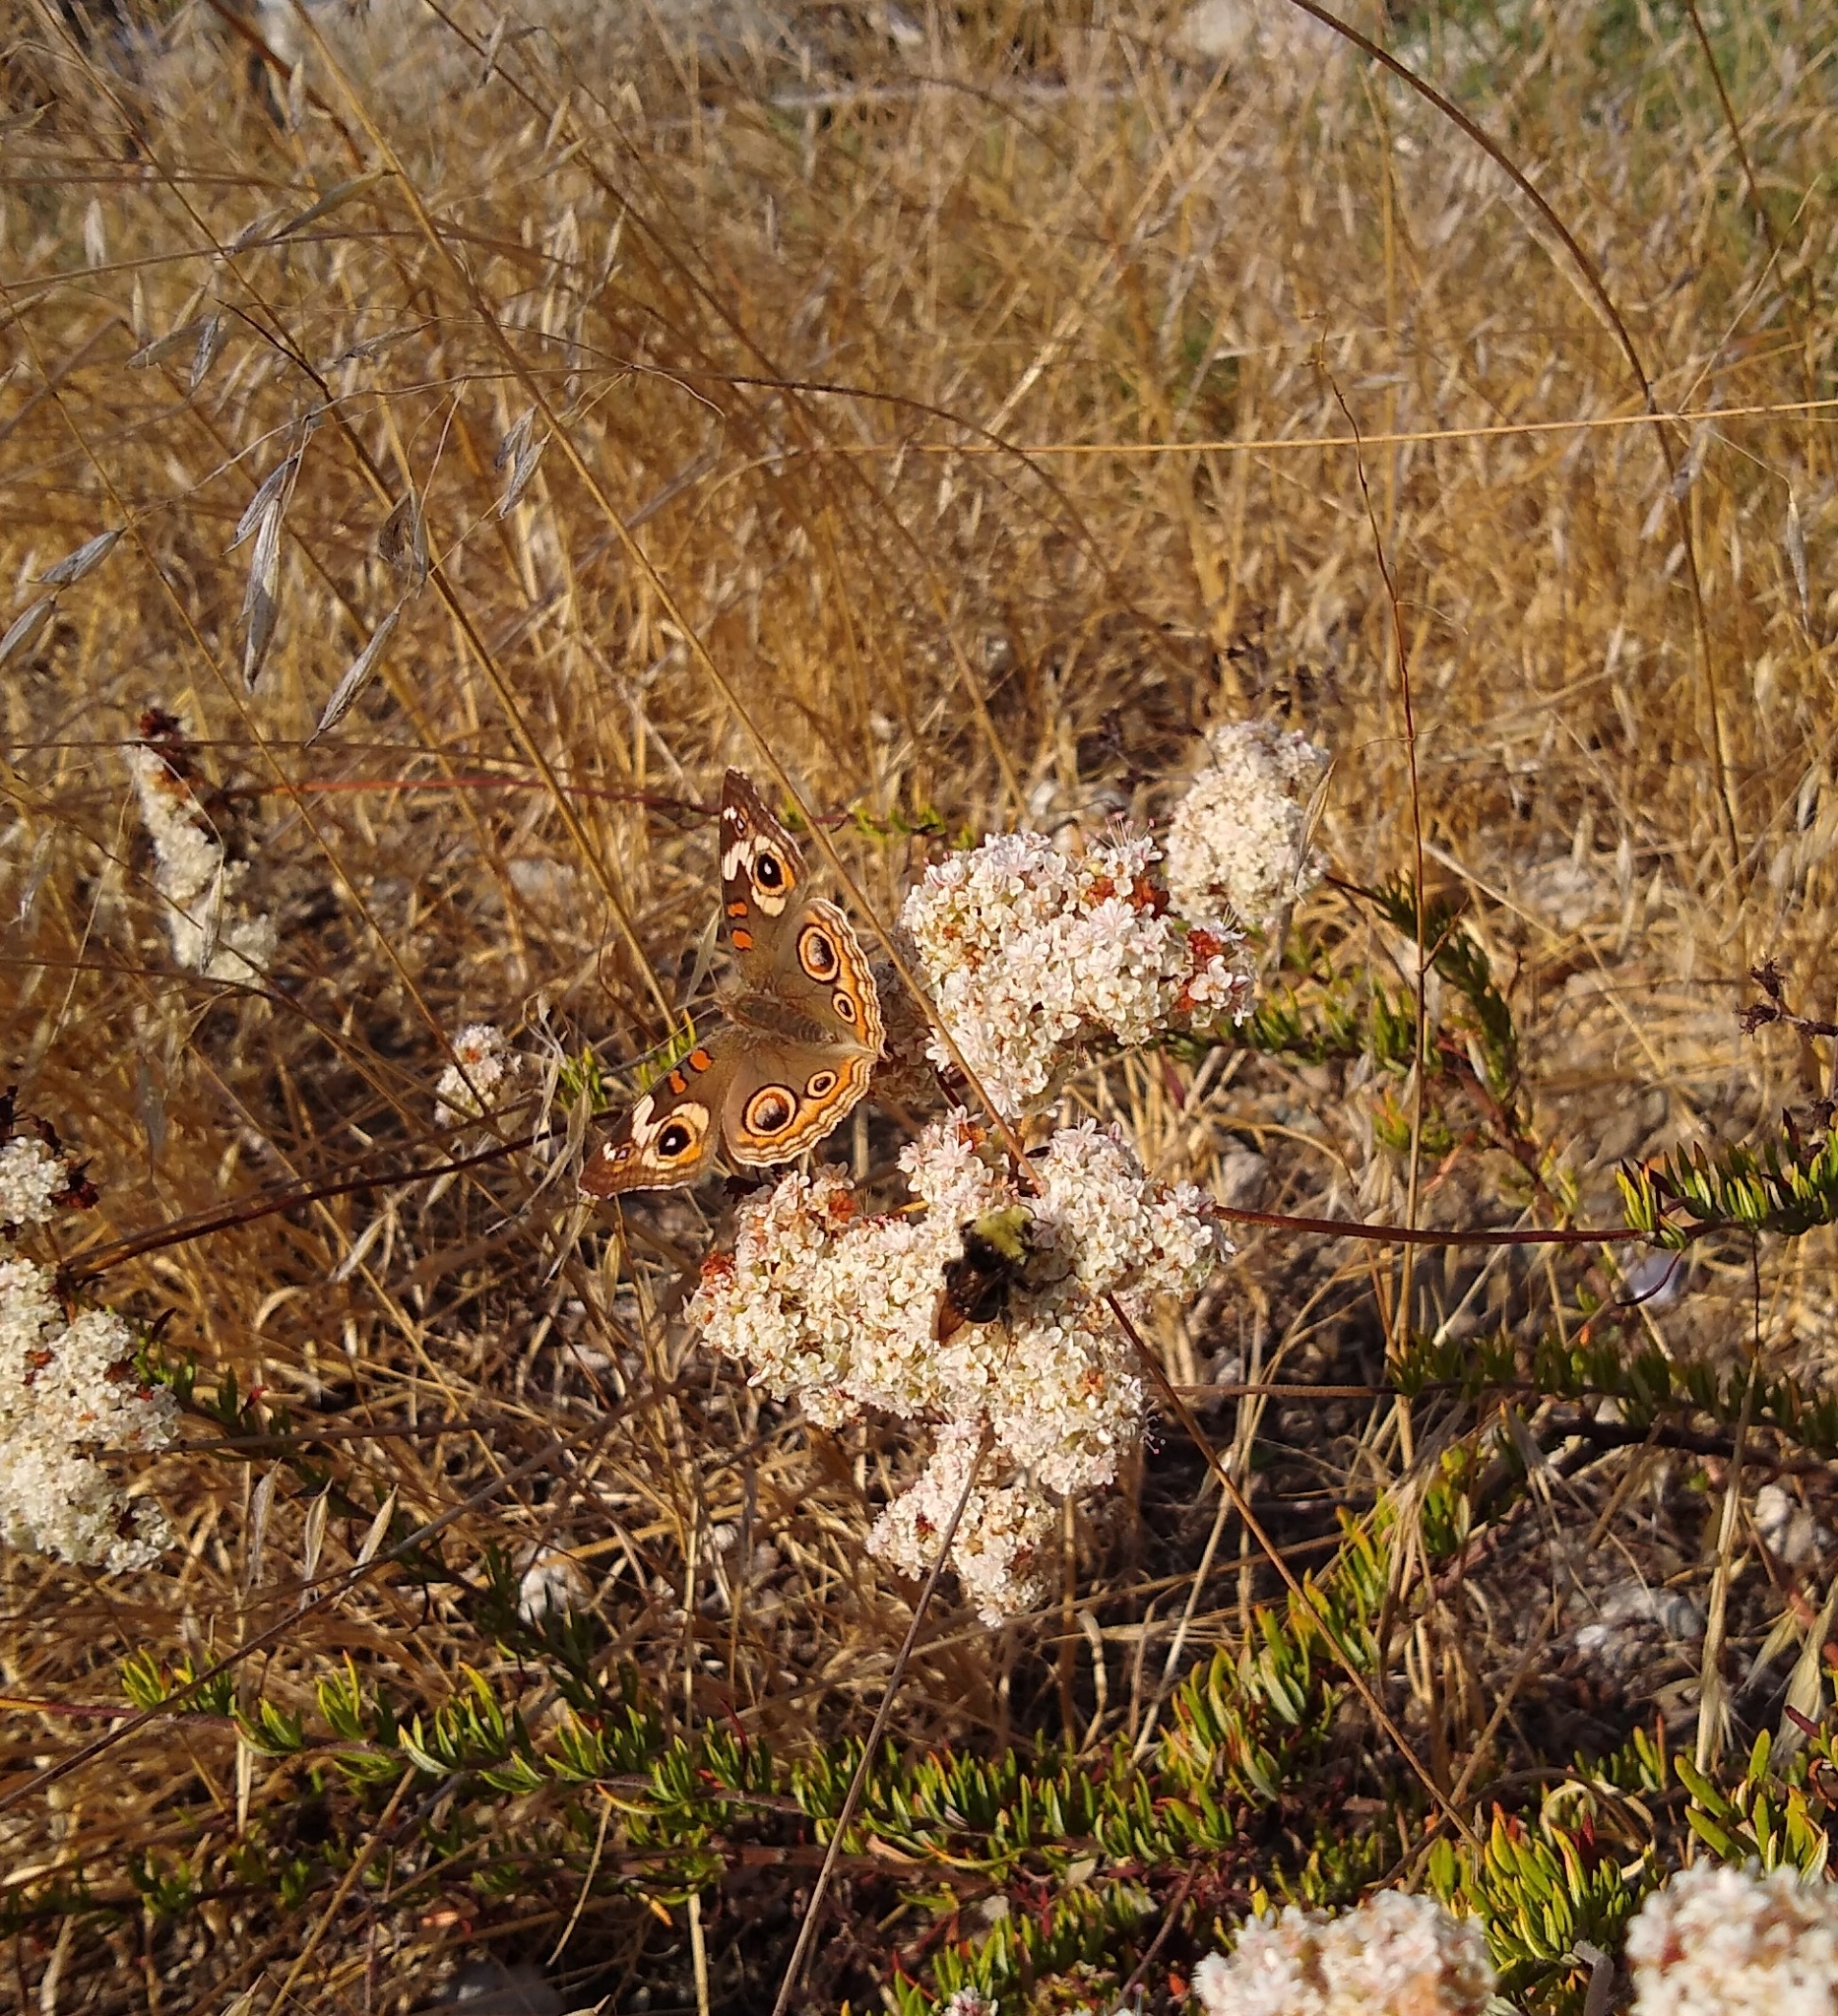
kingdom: Animalia
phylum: Arthropoda
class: Insecta
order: Lepidoptera
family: Nymphalidae
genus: Junonia
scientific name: Junonia grisea
